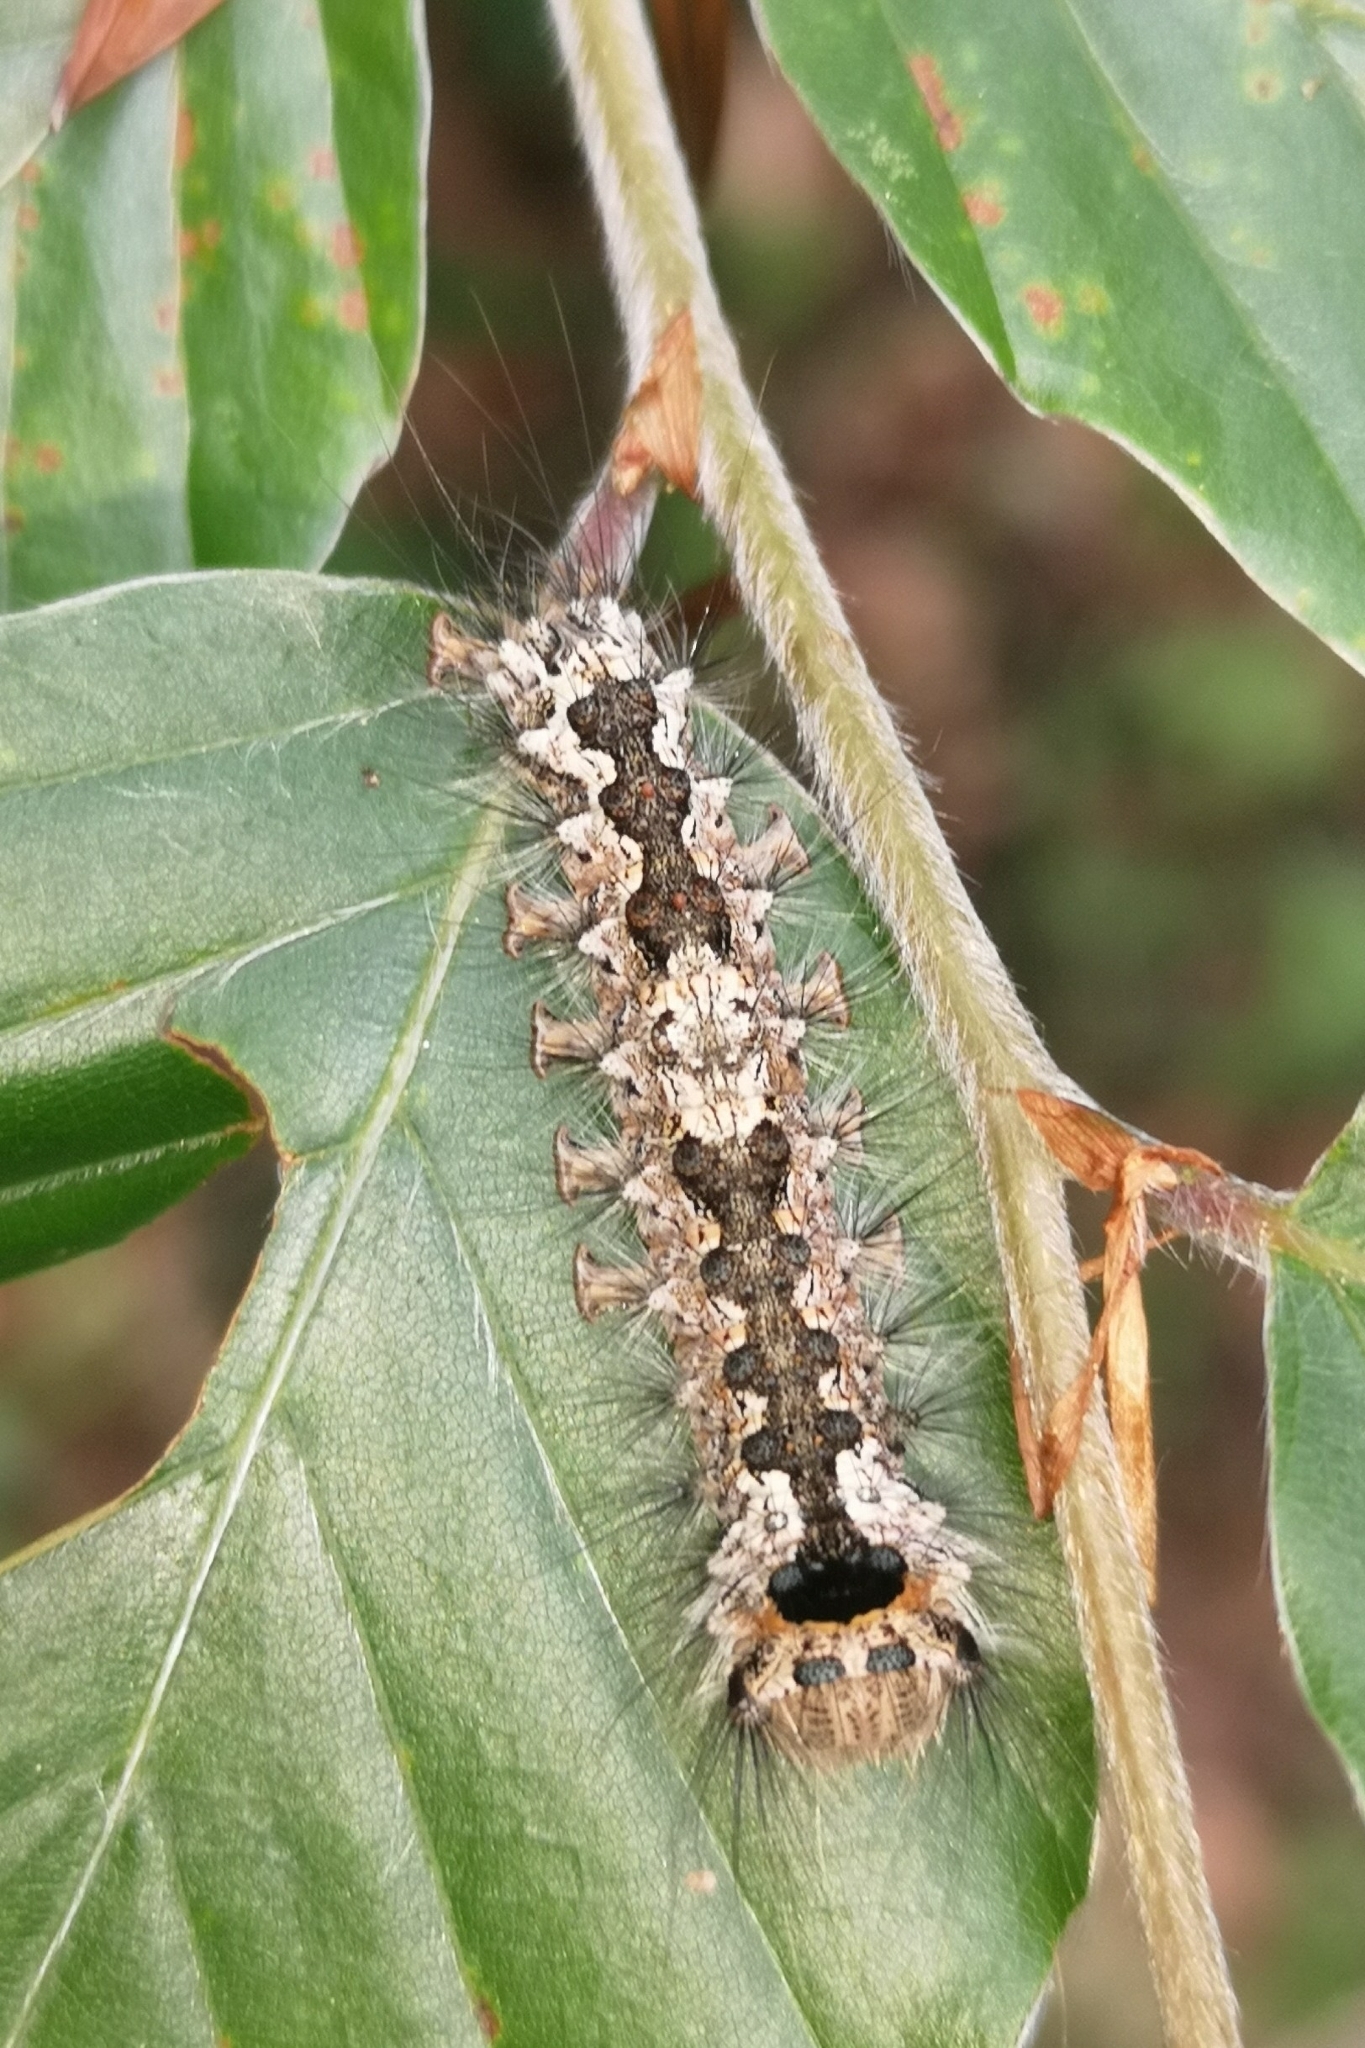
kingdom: Animalia
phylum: Arthropoda
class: Insecta
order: Lepidoptera
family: Erebidae
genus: Lymantria
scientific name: Lymantria monacha
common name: Black arches
